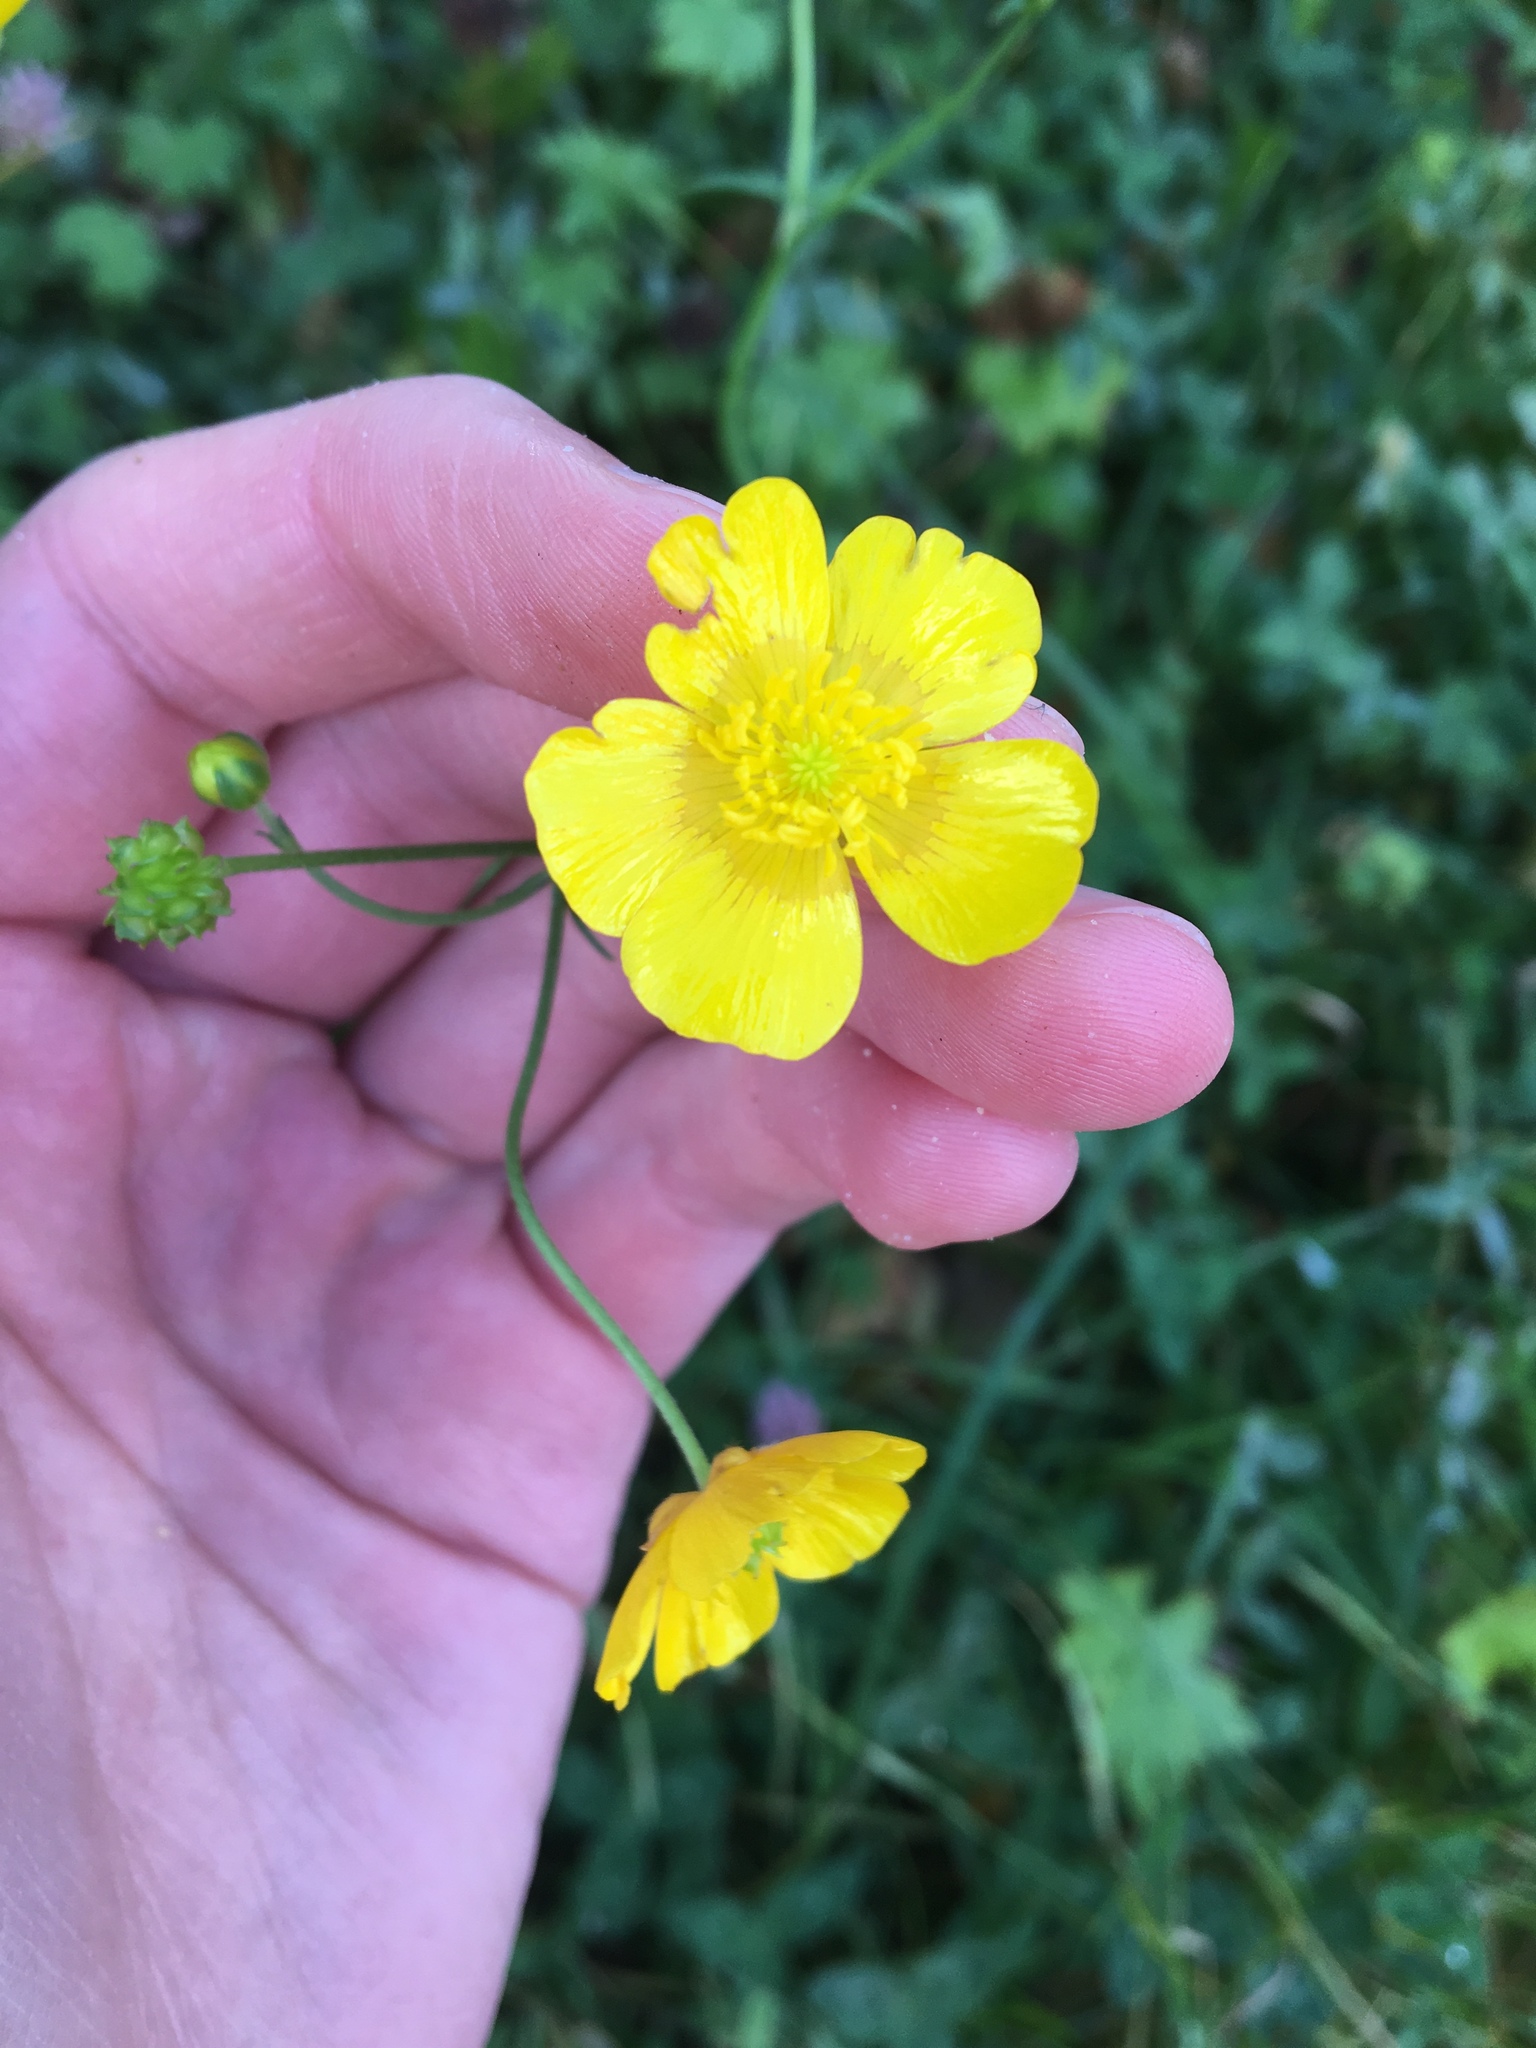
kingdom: Plantae
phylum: Tracheophyta
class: Magnoliopsida
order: Ranunculales
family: Ranunculaceae
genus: Ranunculus
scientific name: Ranunculus acris
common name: Meadow buttercup
